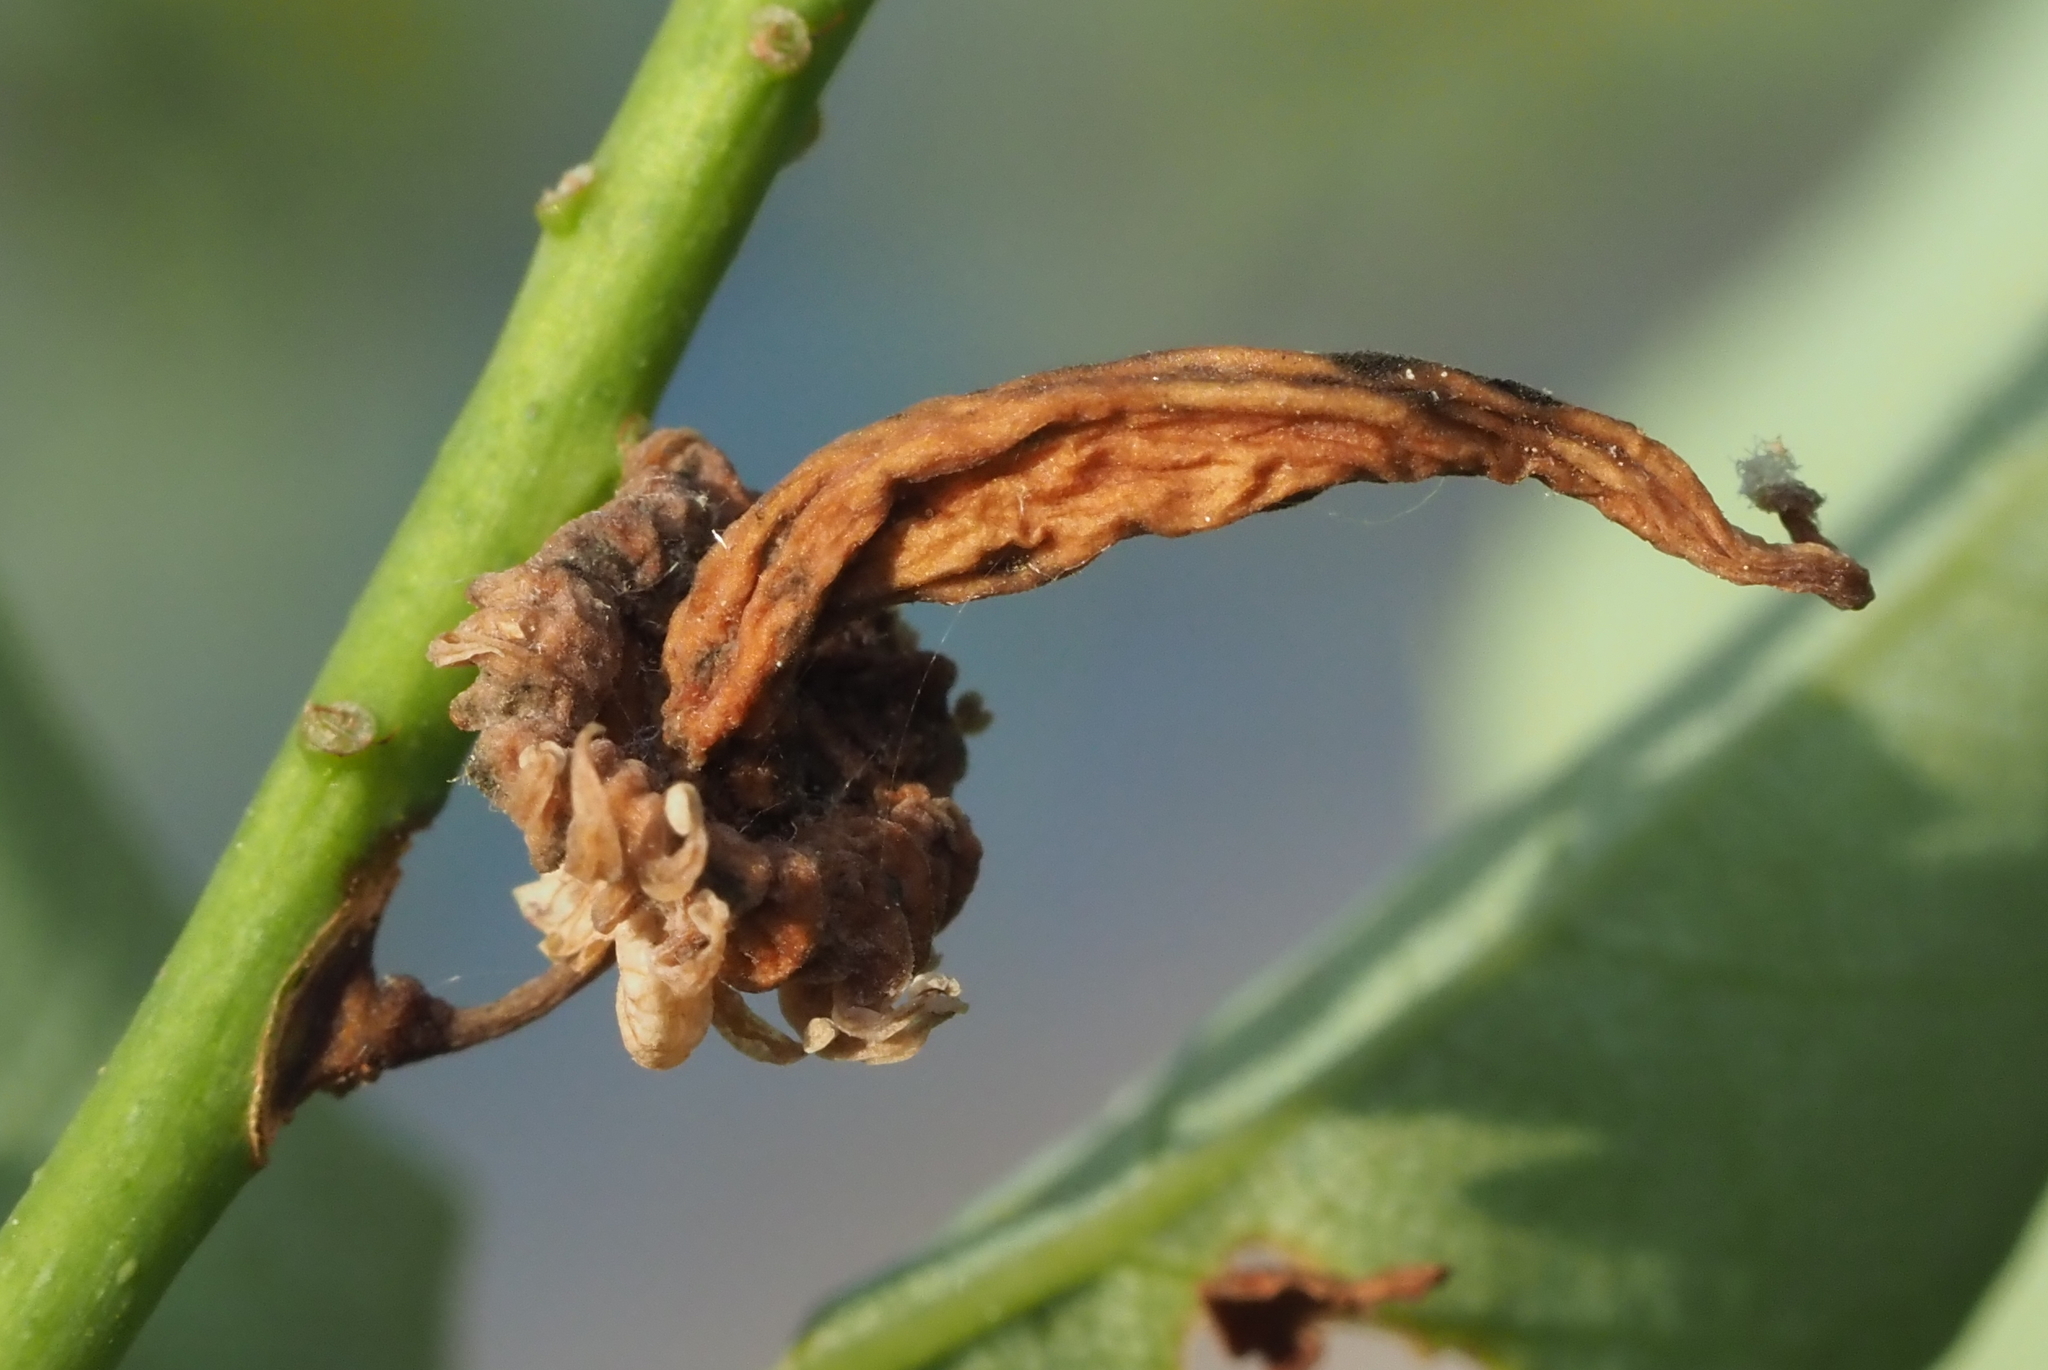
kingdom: Fungi
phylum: Ascomycota
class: Taphrinomycetes
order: Taphrinales
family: Taphrinaceae
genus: Taphrina
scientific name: Taphrina confusa
